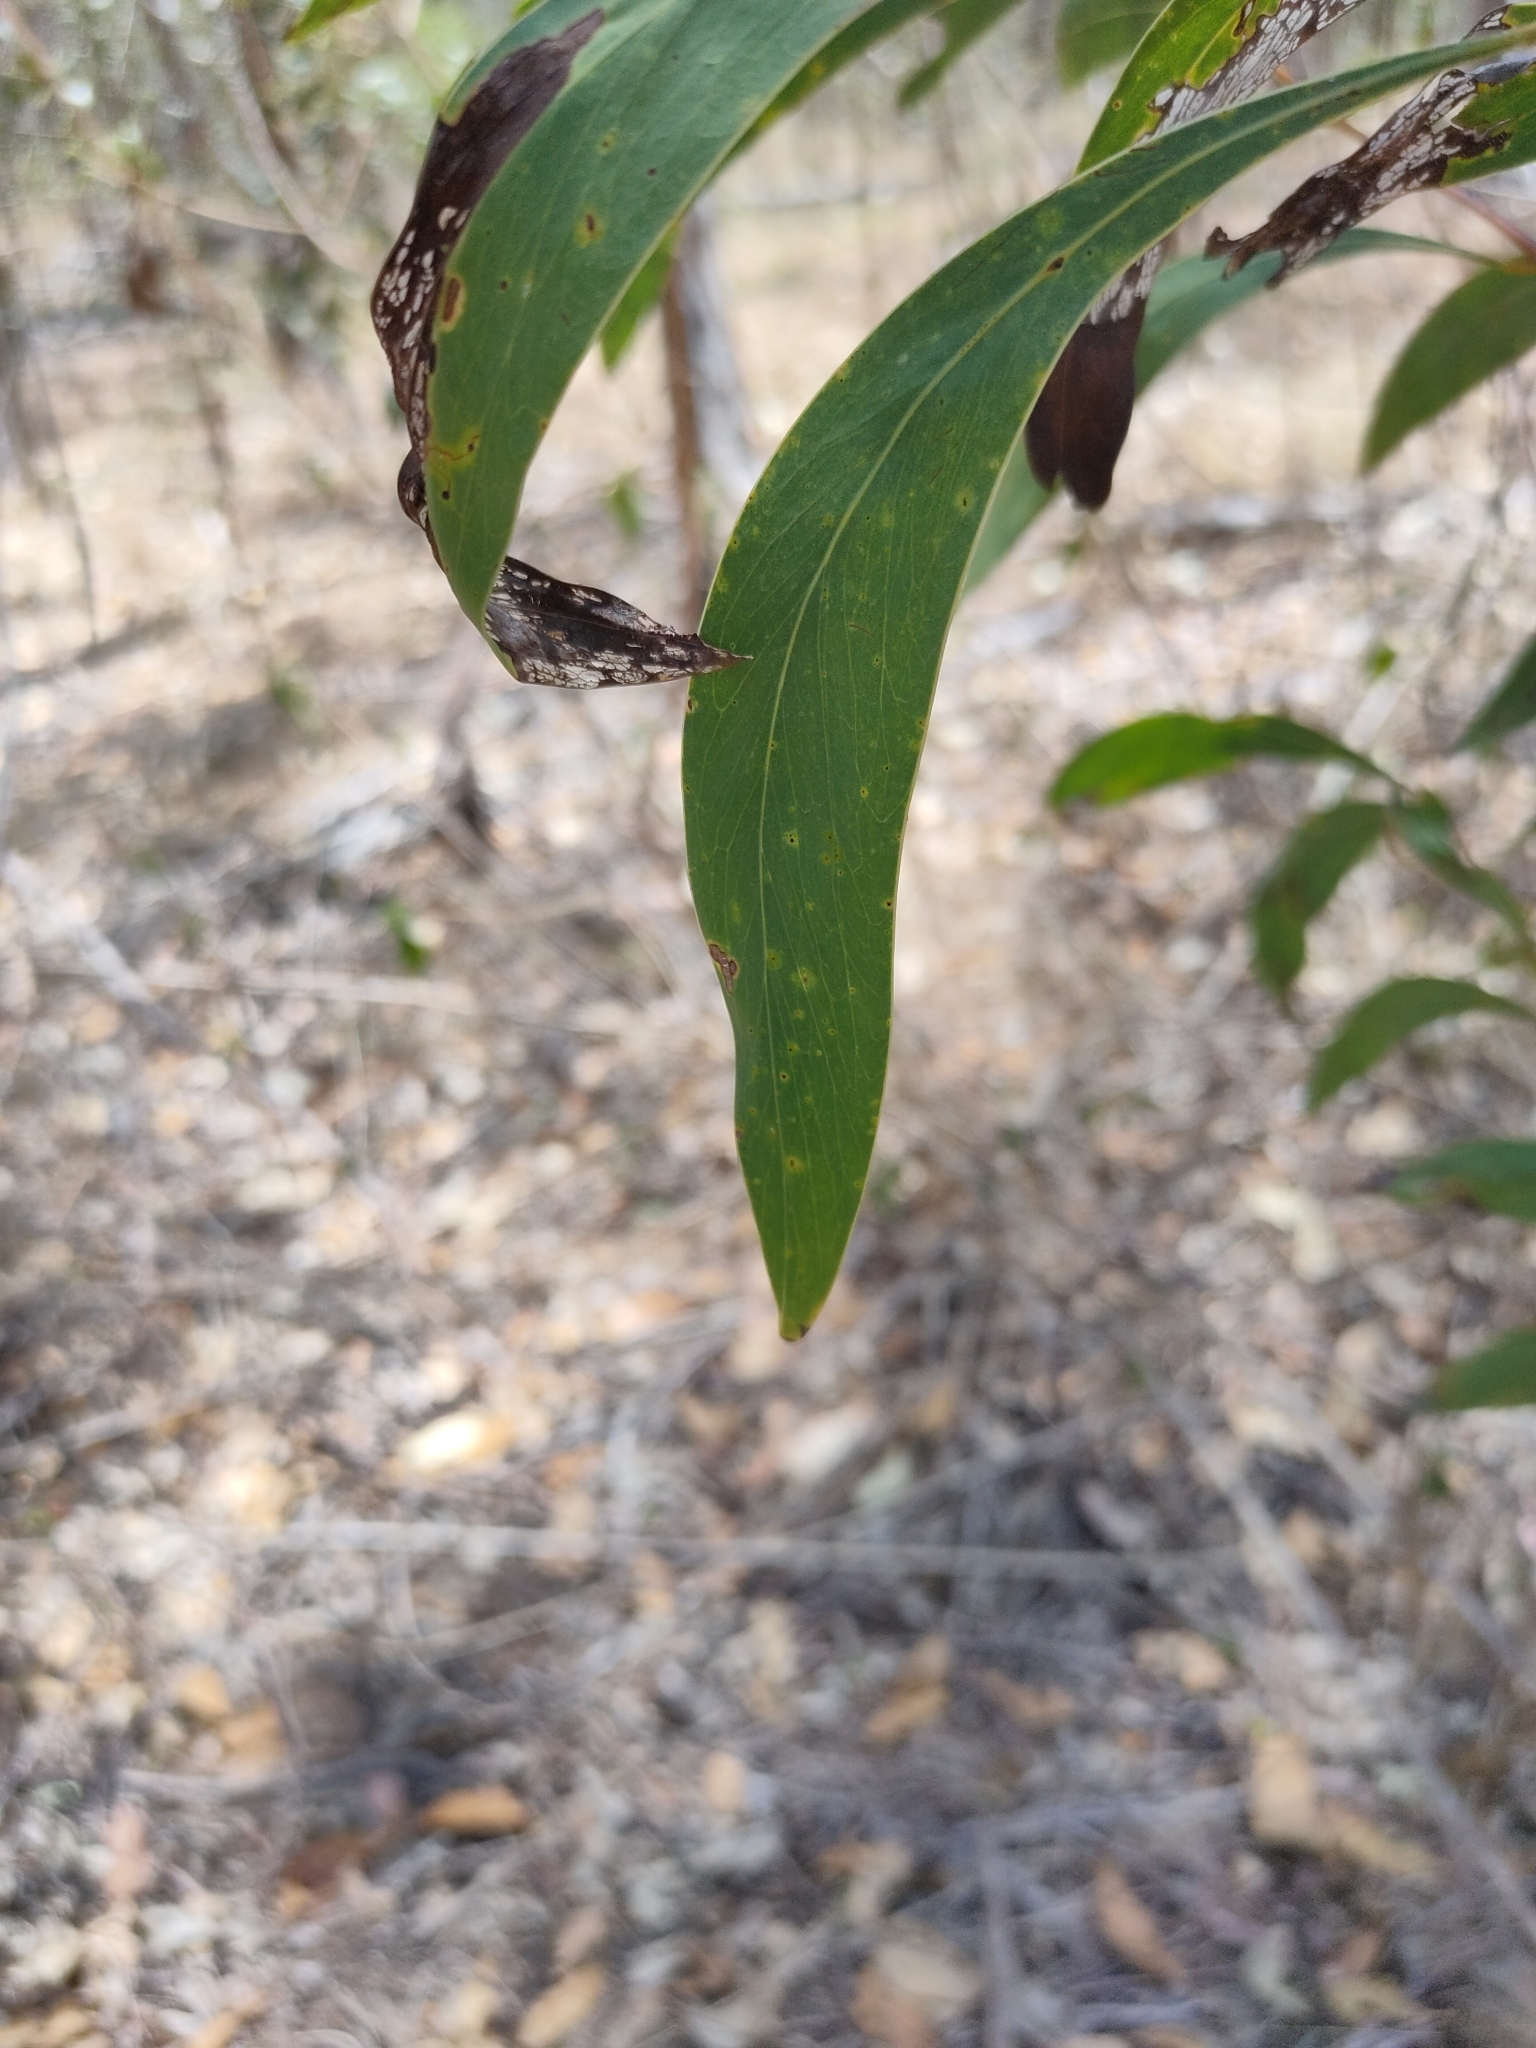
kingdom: Plantae
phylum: Tracheophyta
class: Magnoliopsida
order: Fabales
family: Fabaceae
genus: Acacia
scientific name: Acacia falcata
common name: Burra acacia
